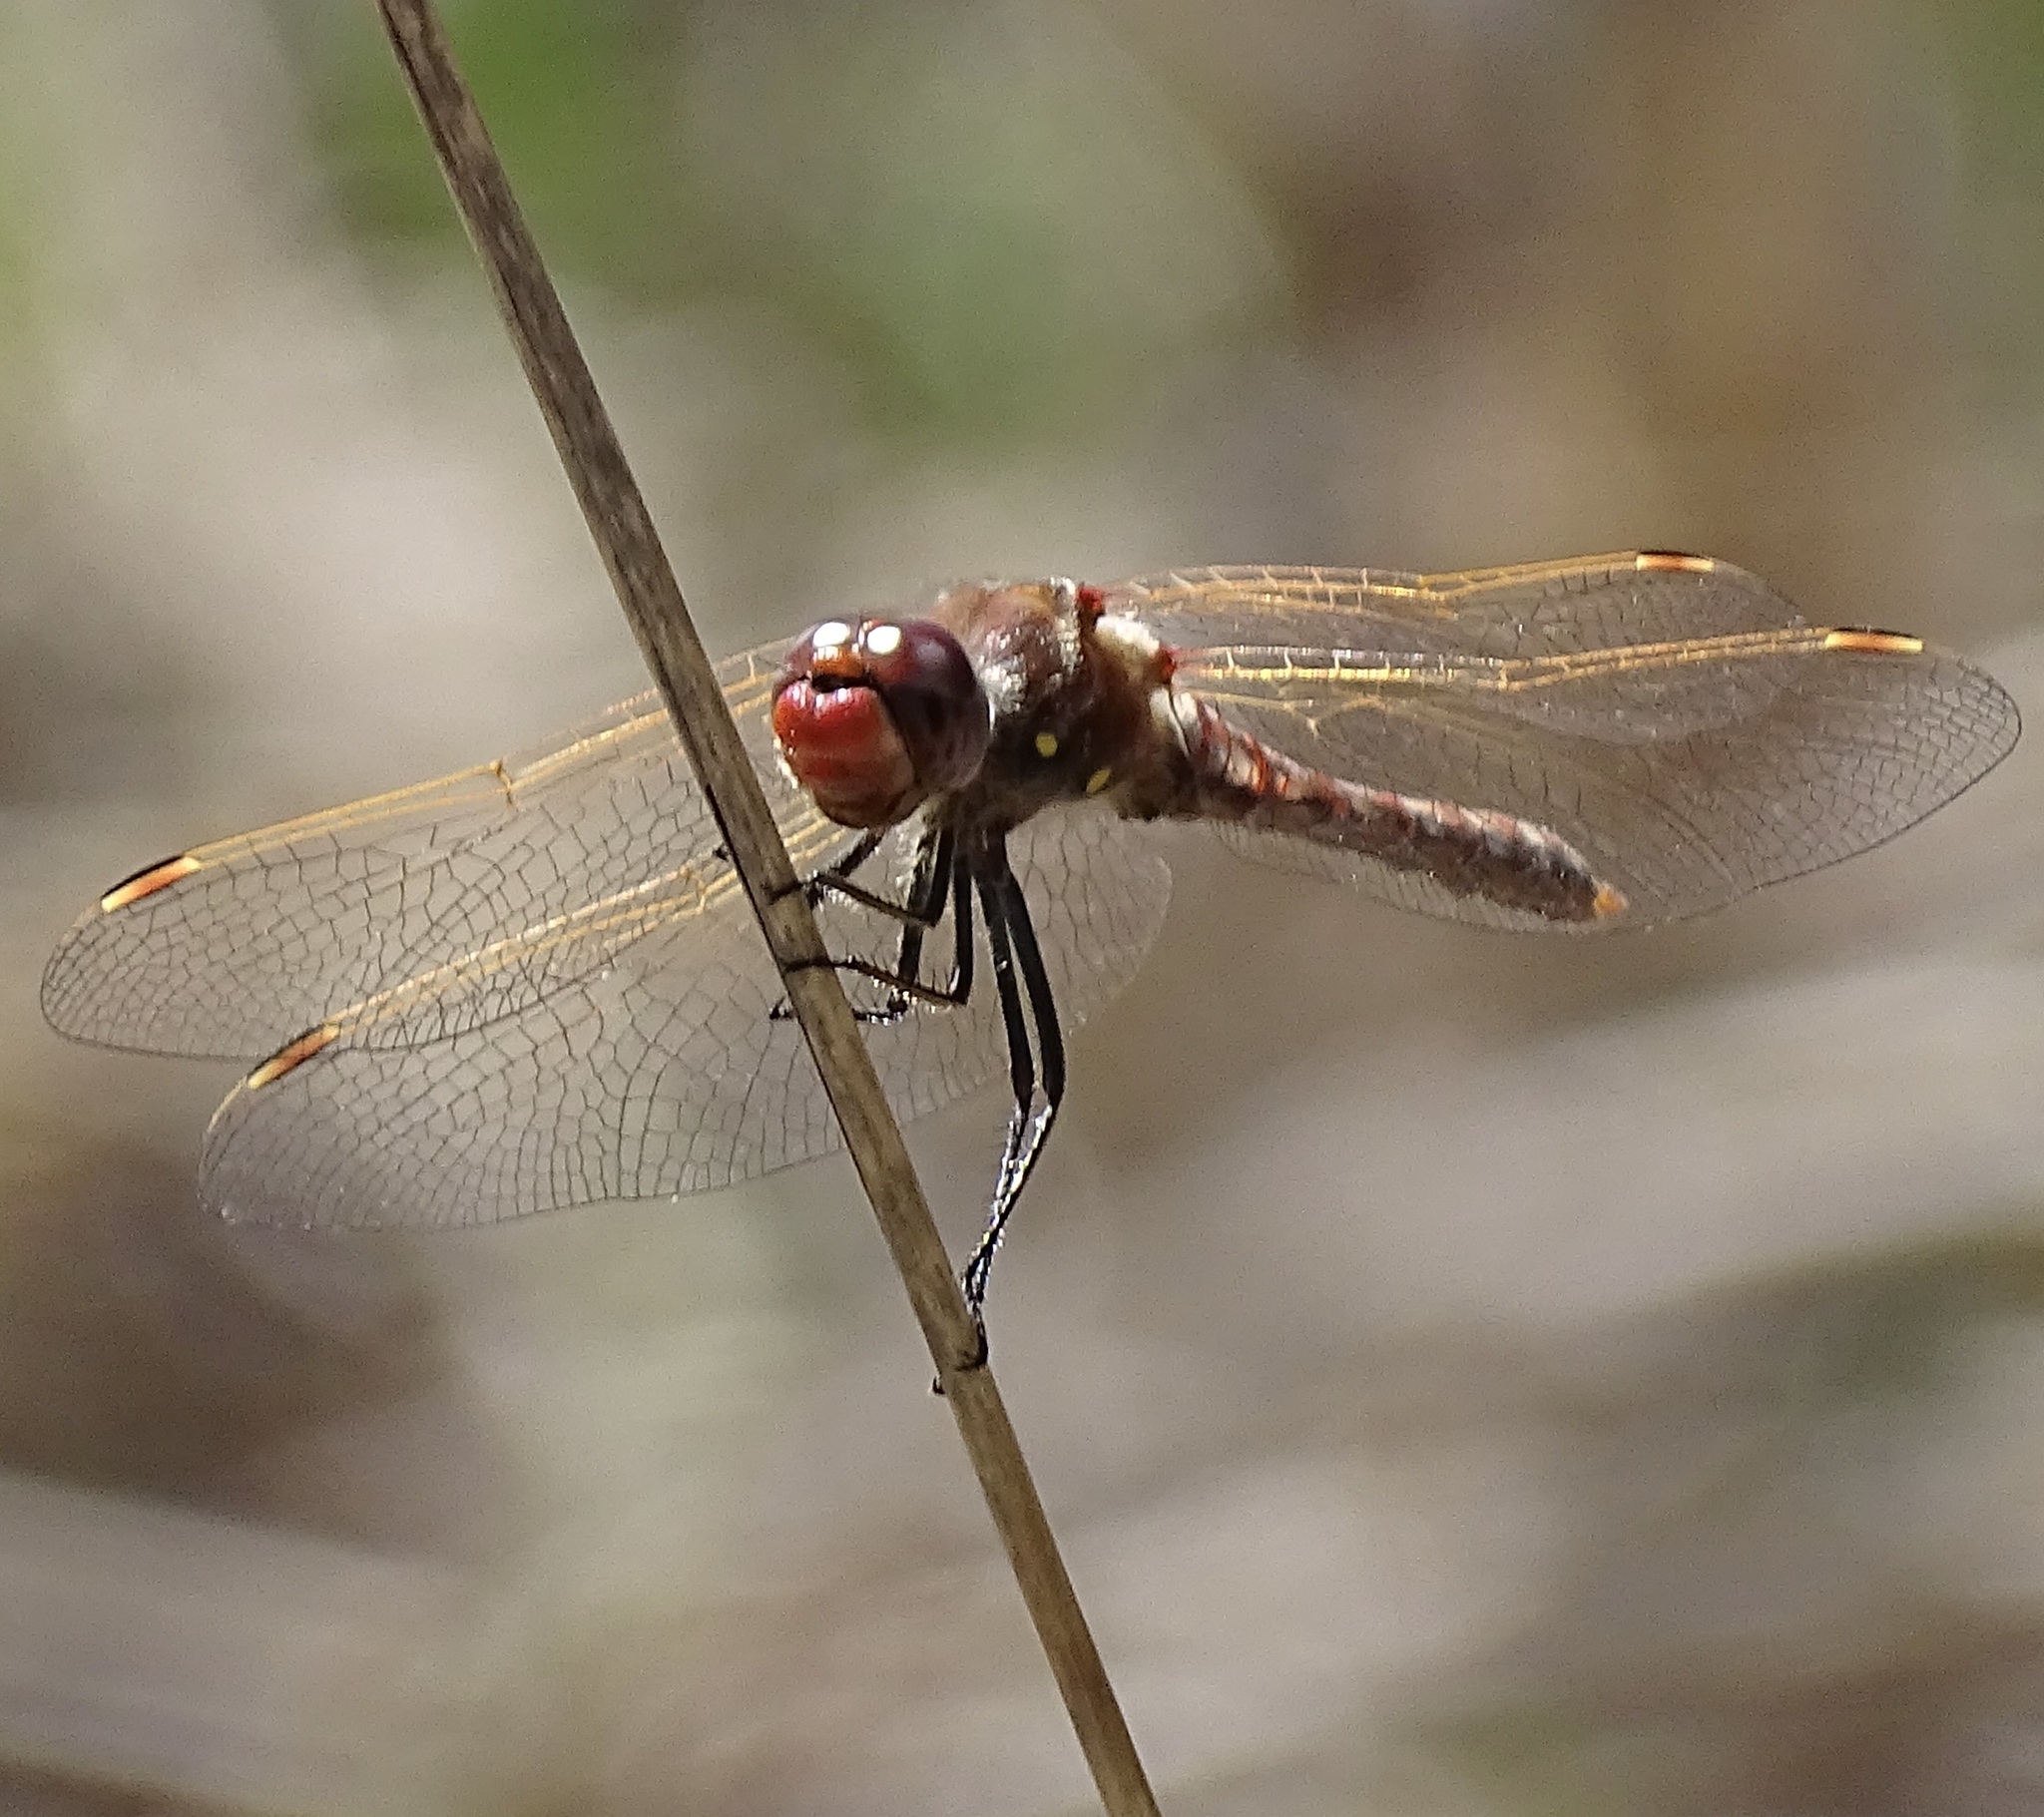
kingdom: Animalia
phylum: Arthropoda
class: Insecta
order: Odonata
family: Libellulidae
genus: Sympetrum
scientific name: Sympetrum corruptum
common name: Variegated meadowhawk
